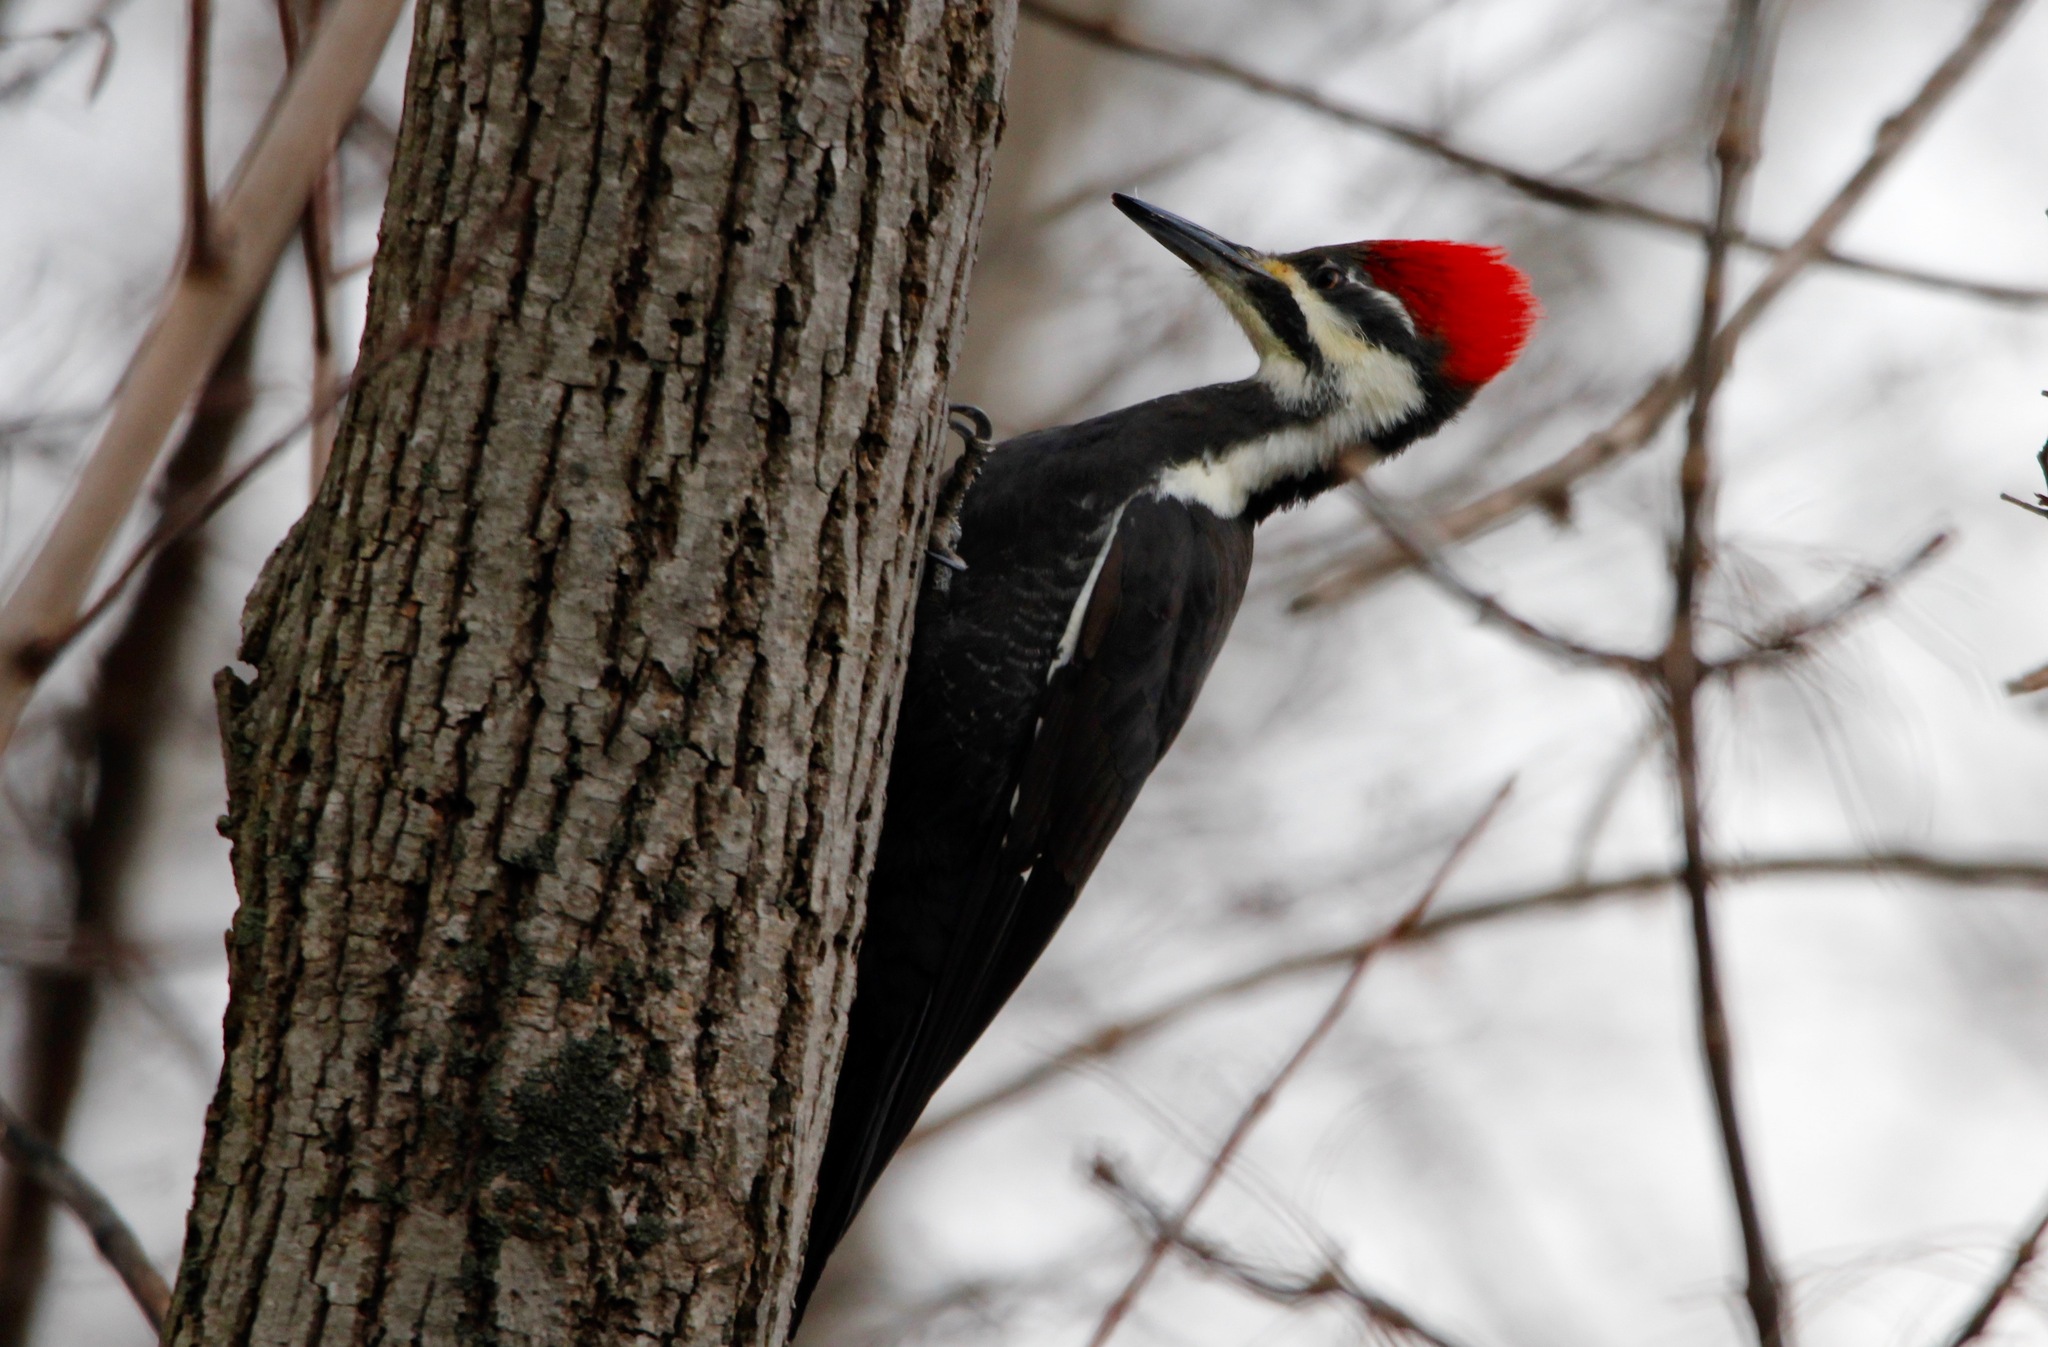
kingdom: Animalia
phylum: Chordata
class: Aves
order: Piciformes
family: Picidae
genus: Dryocopus
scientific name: Dryocopus pileatus
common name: Pileated woodpecker
